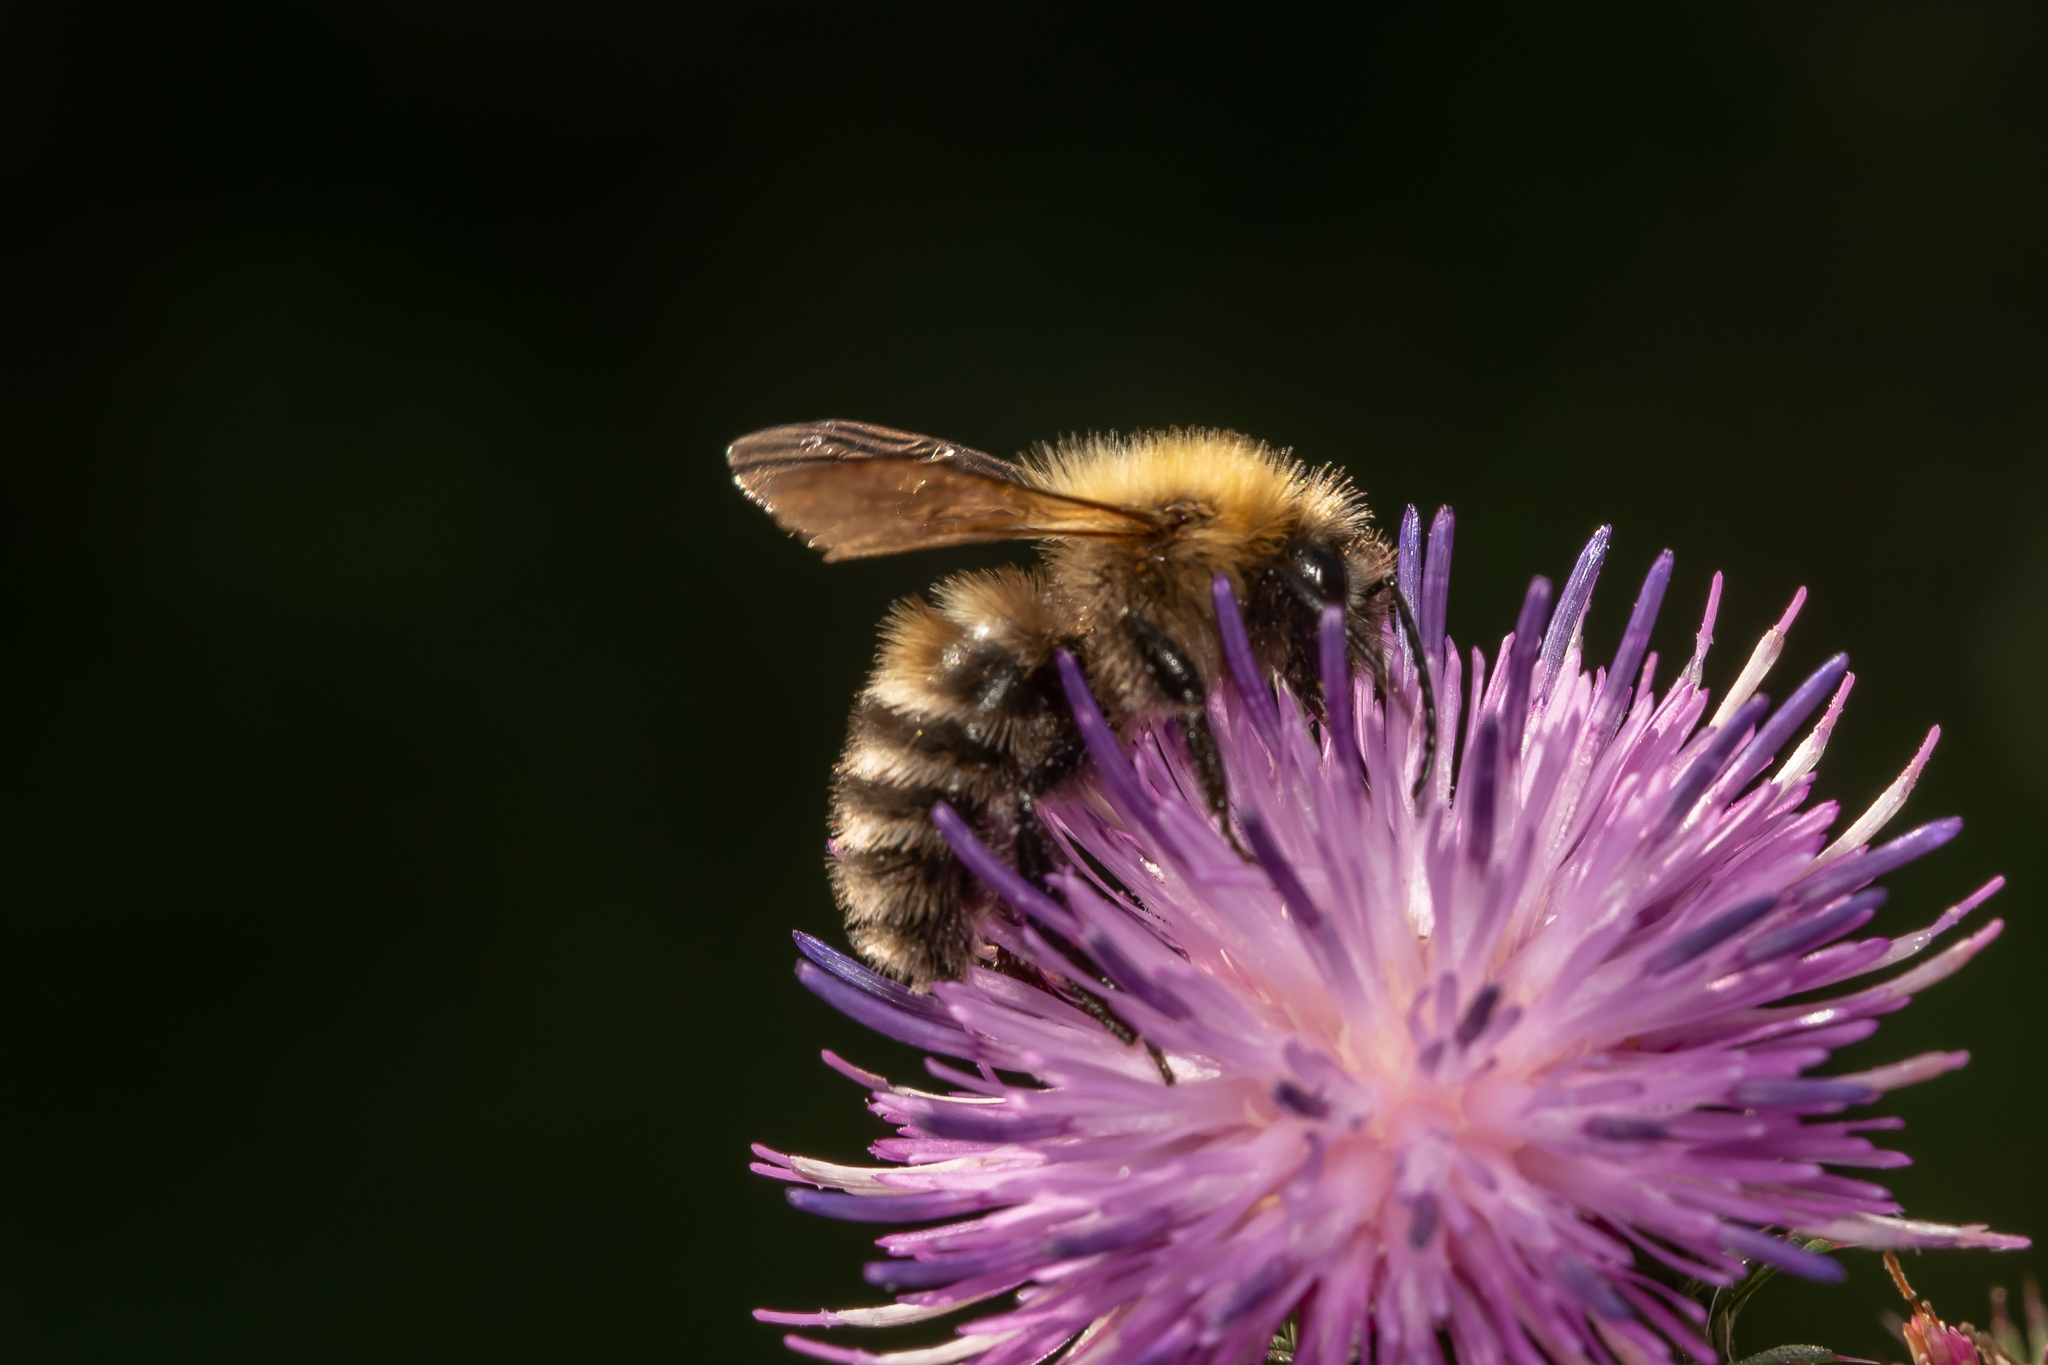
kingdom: Animalia
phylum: Arthropoda
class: Insecta
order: Hymenoptera
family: Apidae
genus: Bombus
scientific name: Bombus schrencki
